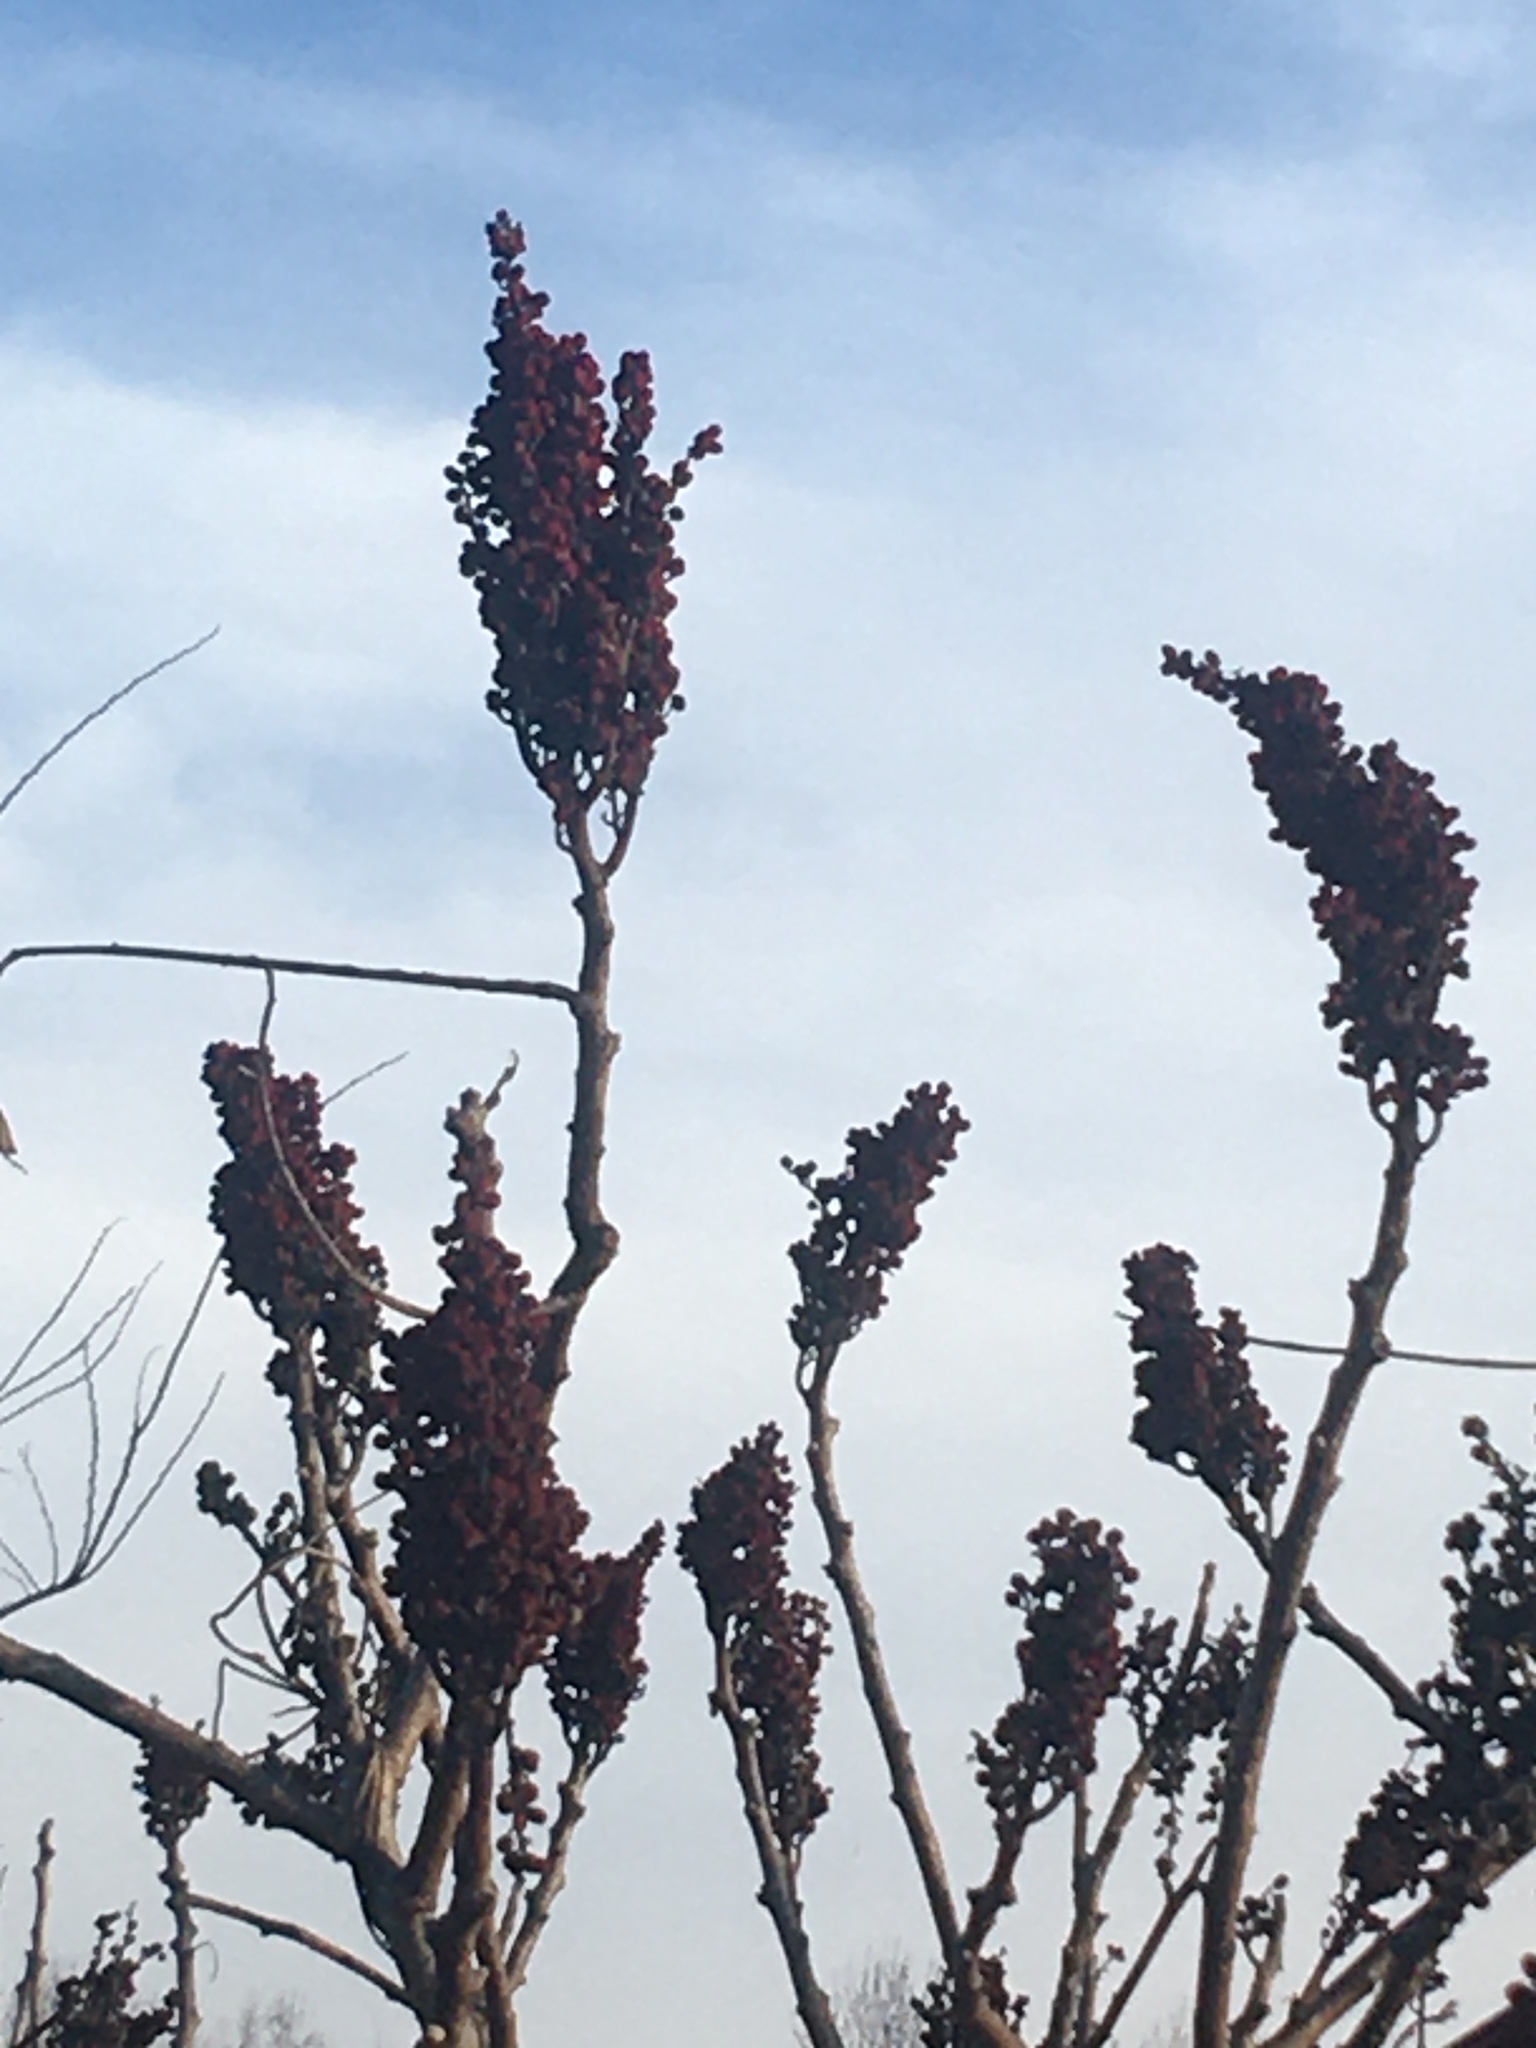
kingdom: Plantae
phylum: Tracheophyta
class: Magnoliopsida
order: Sapindales
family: Anacardiaceae
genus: Rhus
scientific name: Rhus glabra
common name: Scarlet sumac
